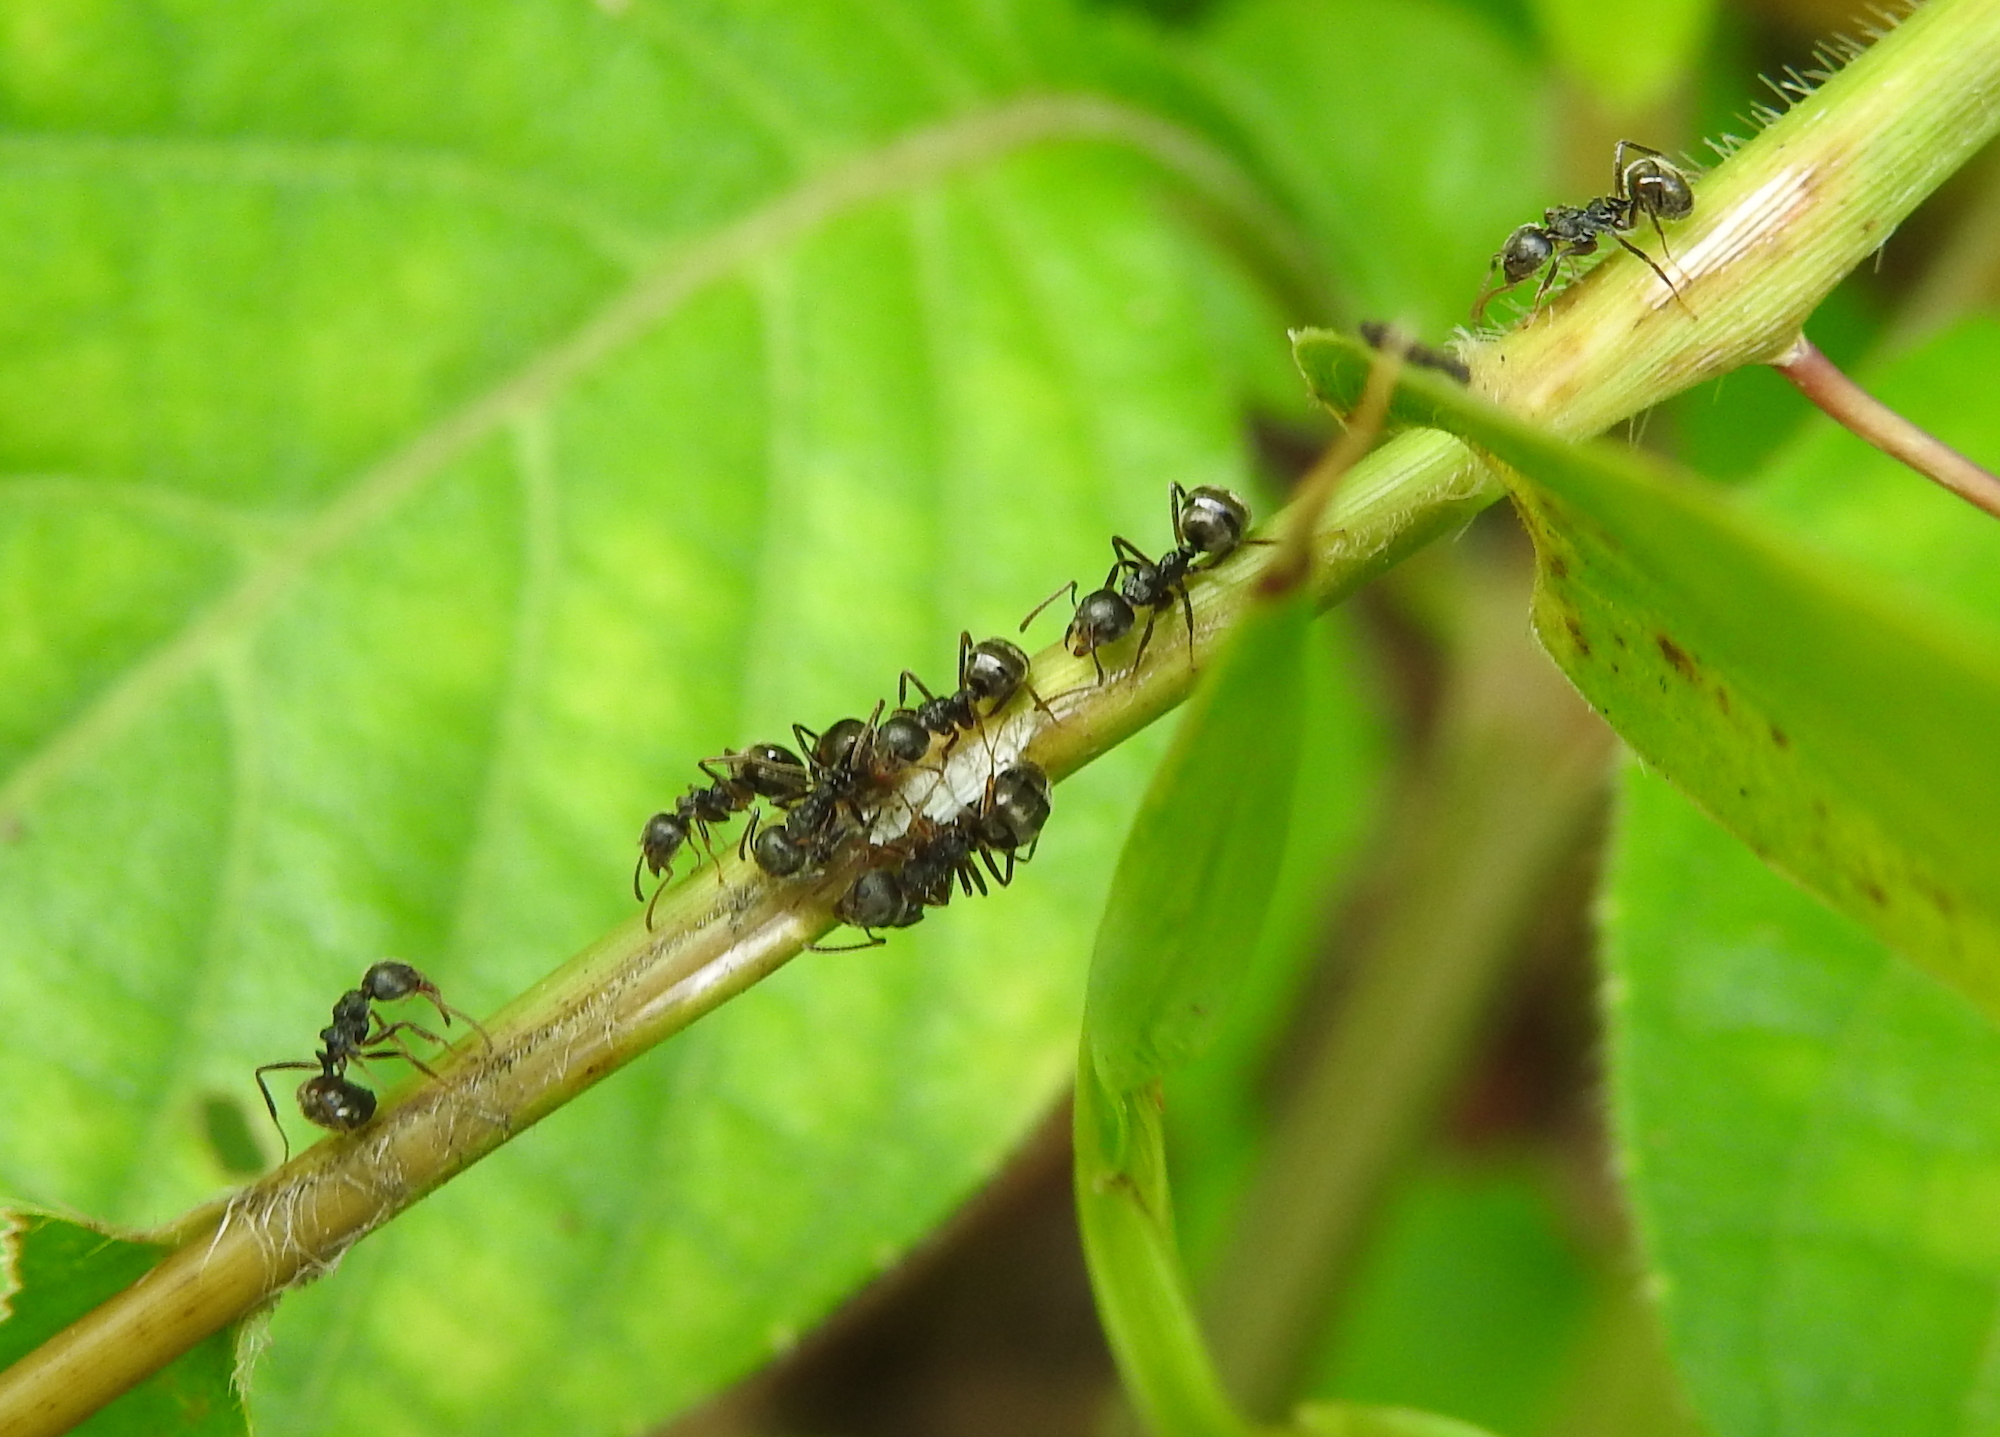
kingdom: Animalia
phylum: Arthropoda
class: Insecta
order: Hymenoptera
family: Formicidae
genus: Dolichoderus
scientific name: Dolichoderus thoracicus
